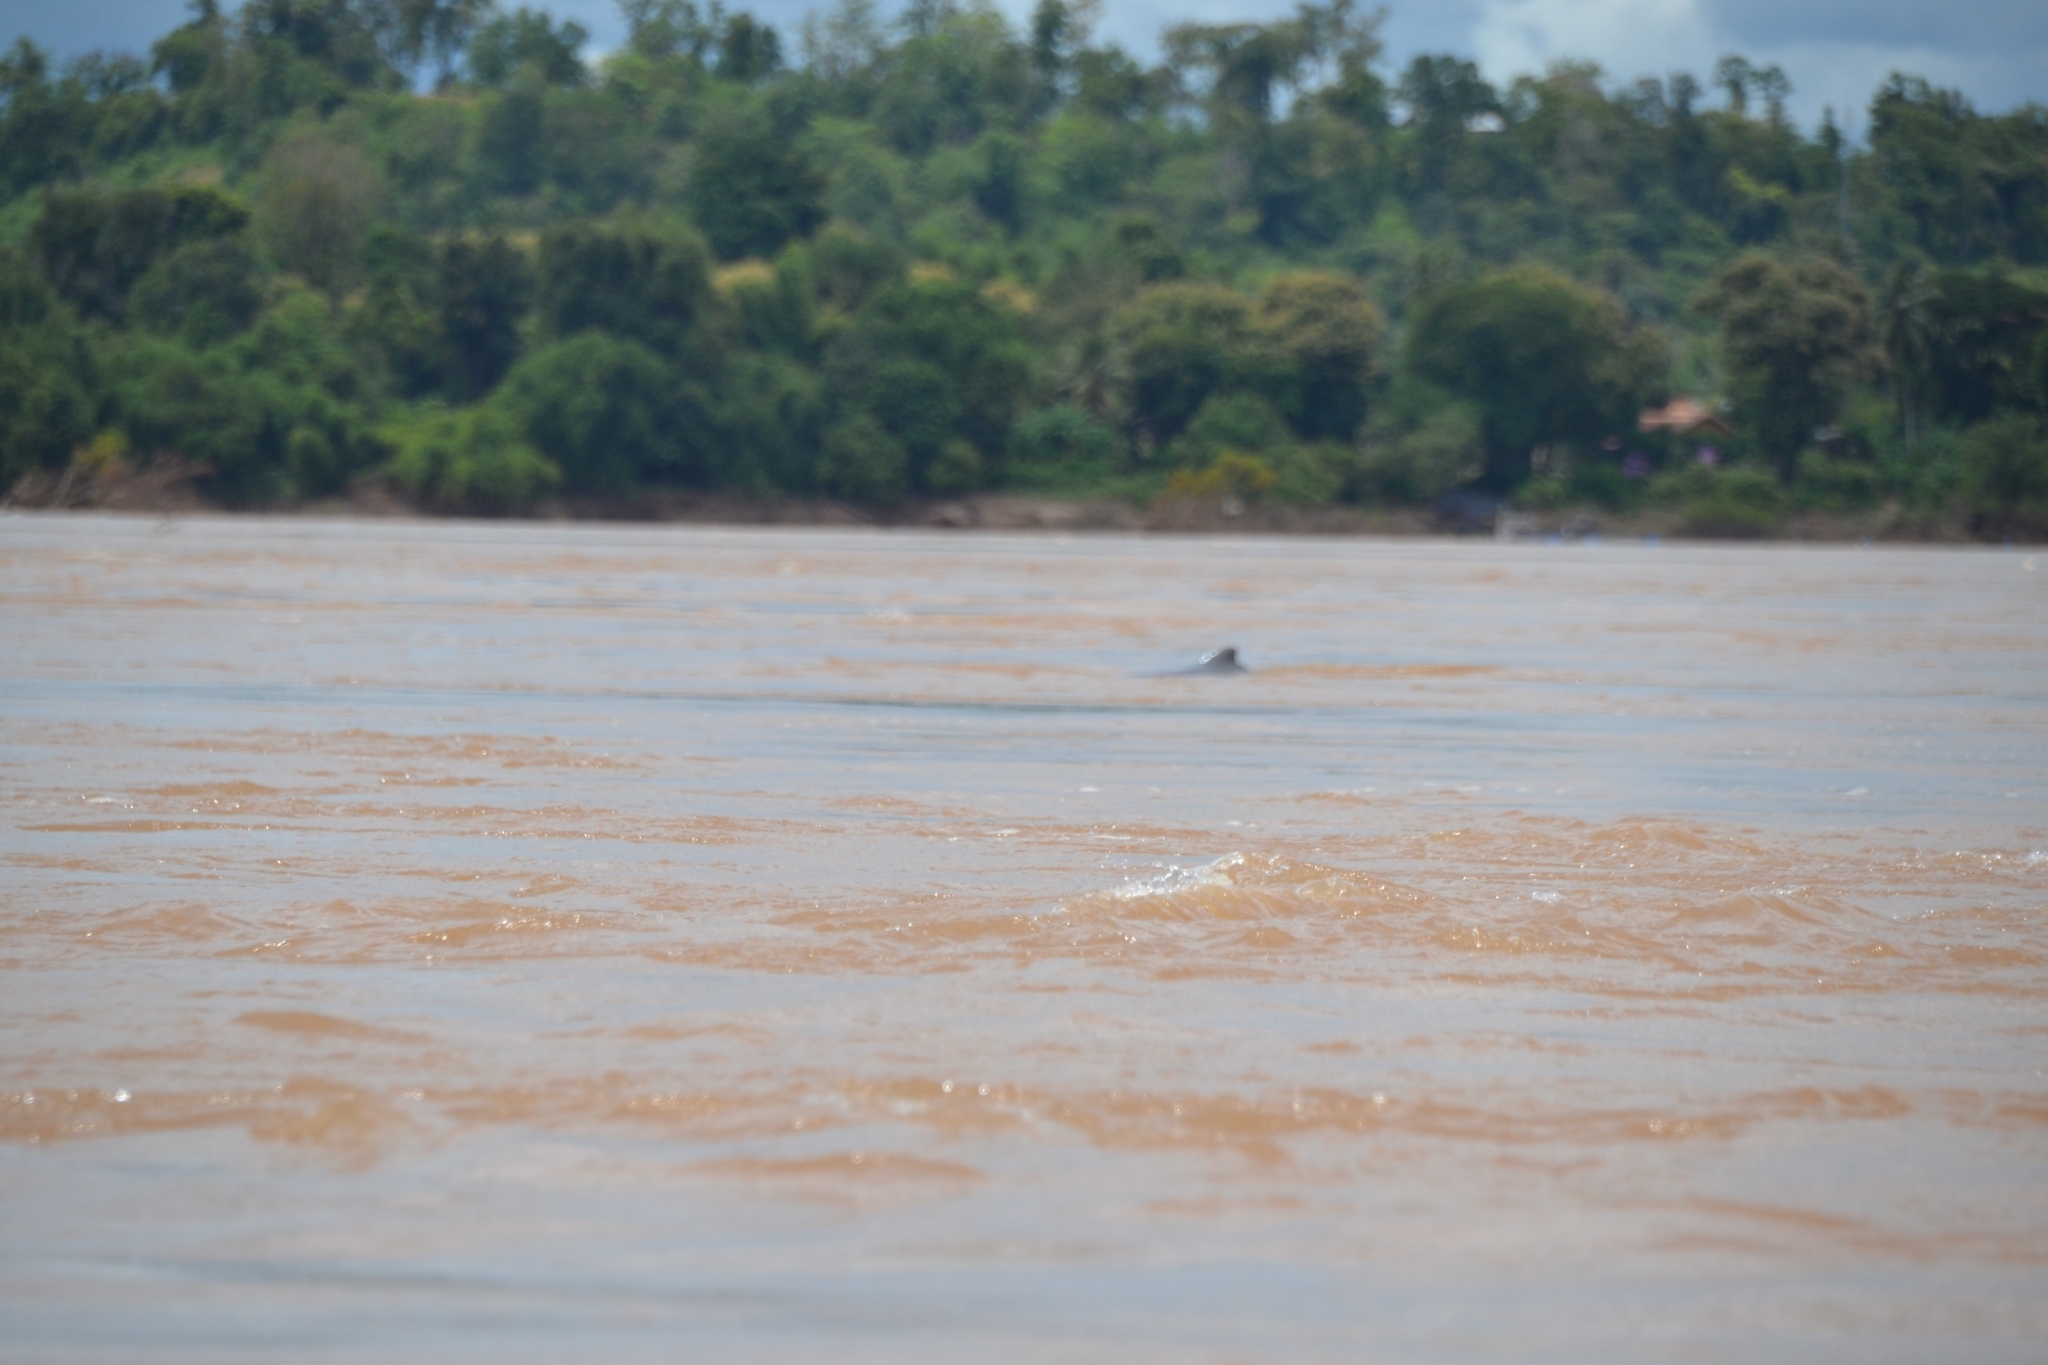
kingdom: Animalia
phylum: Chordata
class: Mammalia
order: Cetacea
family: Delphinidae
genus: Orcaella
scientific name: Orcaella brevirostris
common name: Irrawaddy dolphin
